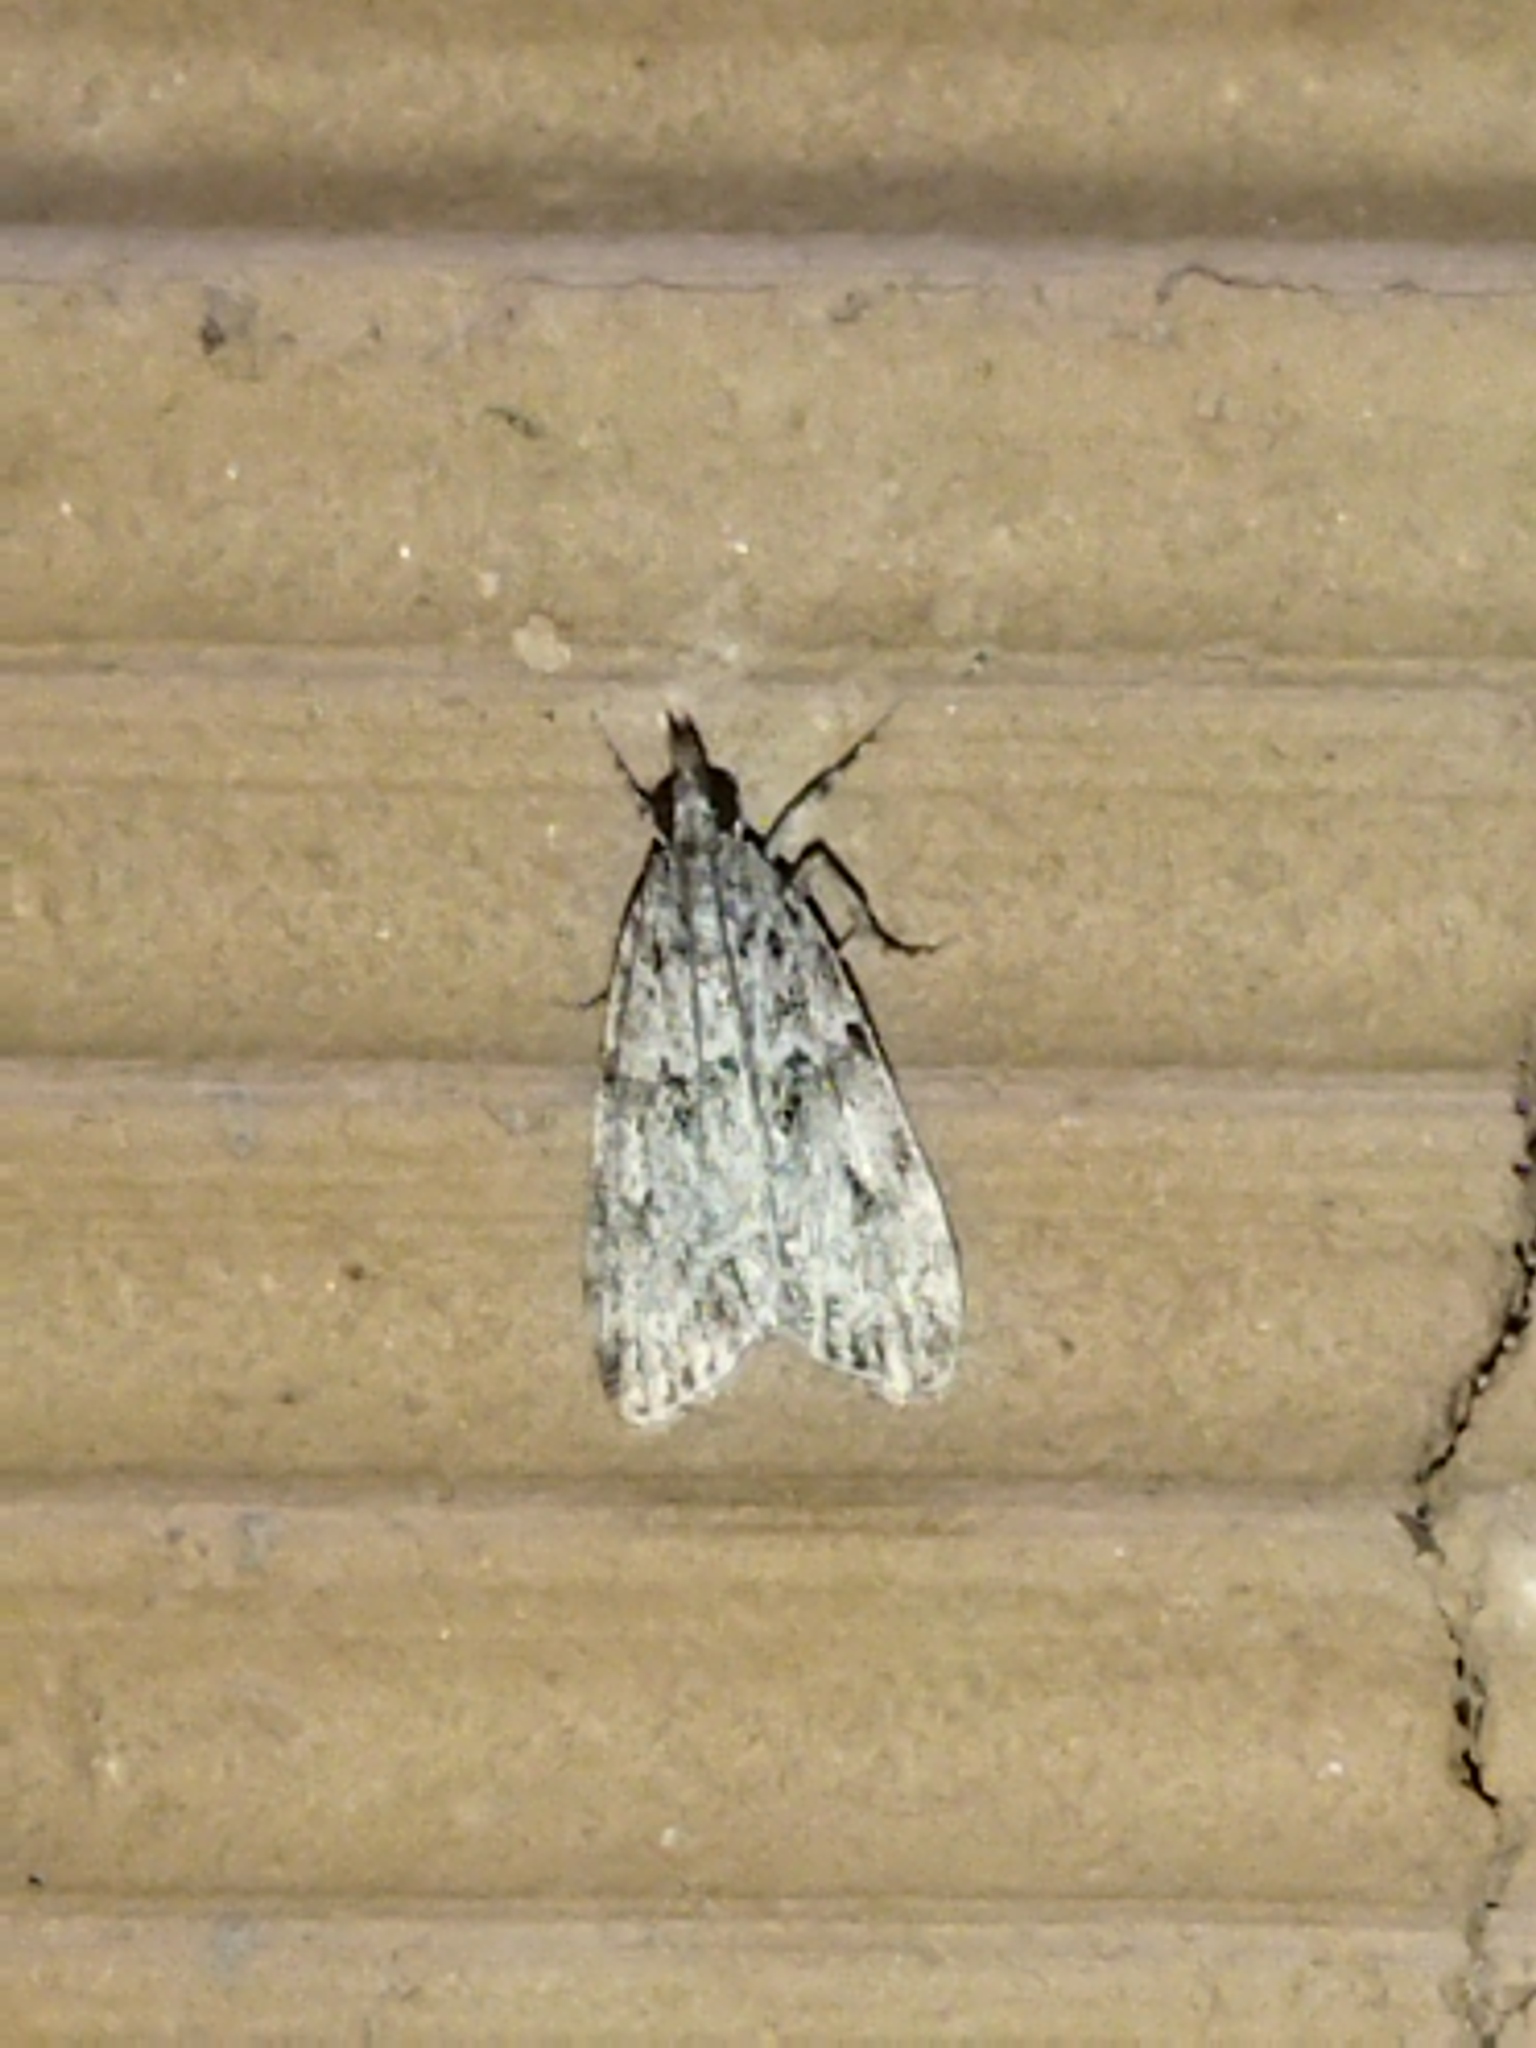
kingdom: Animalia
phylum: Arthropoda
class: Insecta
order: Lepidoptera
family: Crambidae
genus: Eudonia
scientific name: Eudonia lacustrata
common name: Little grey
